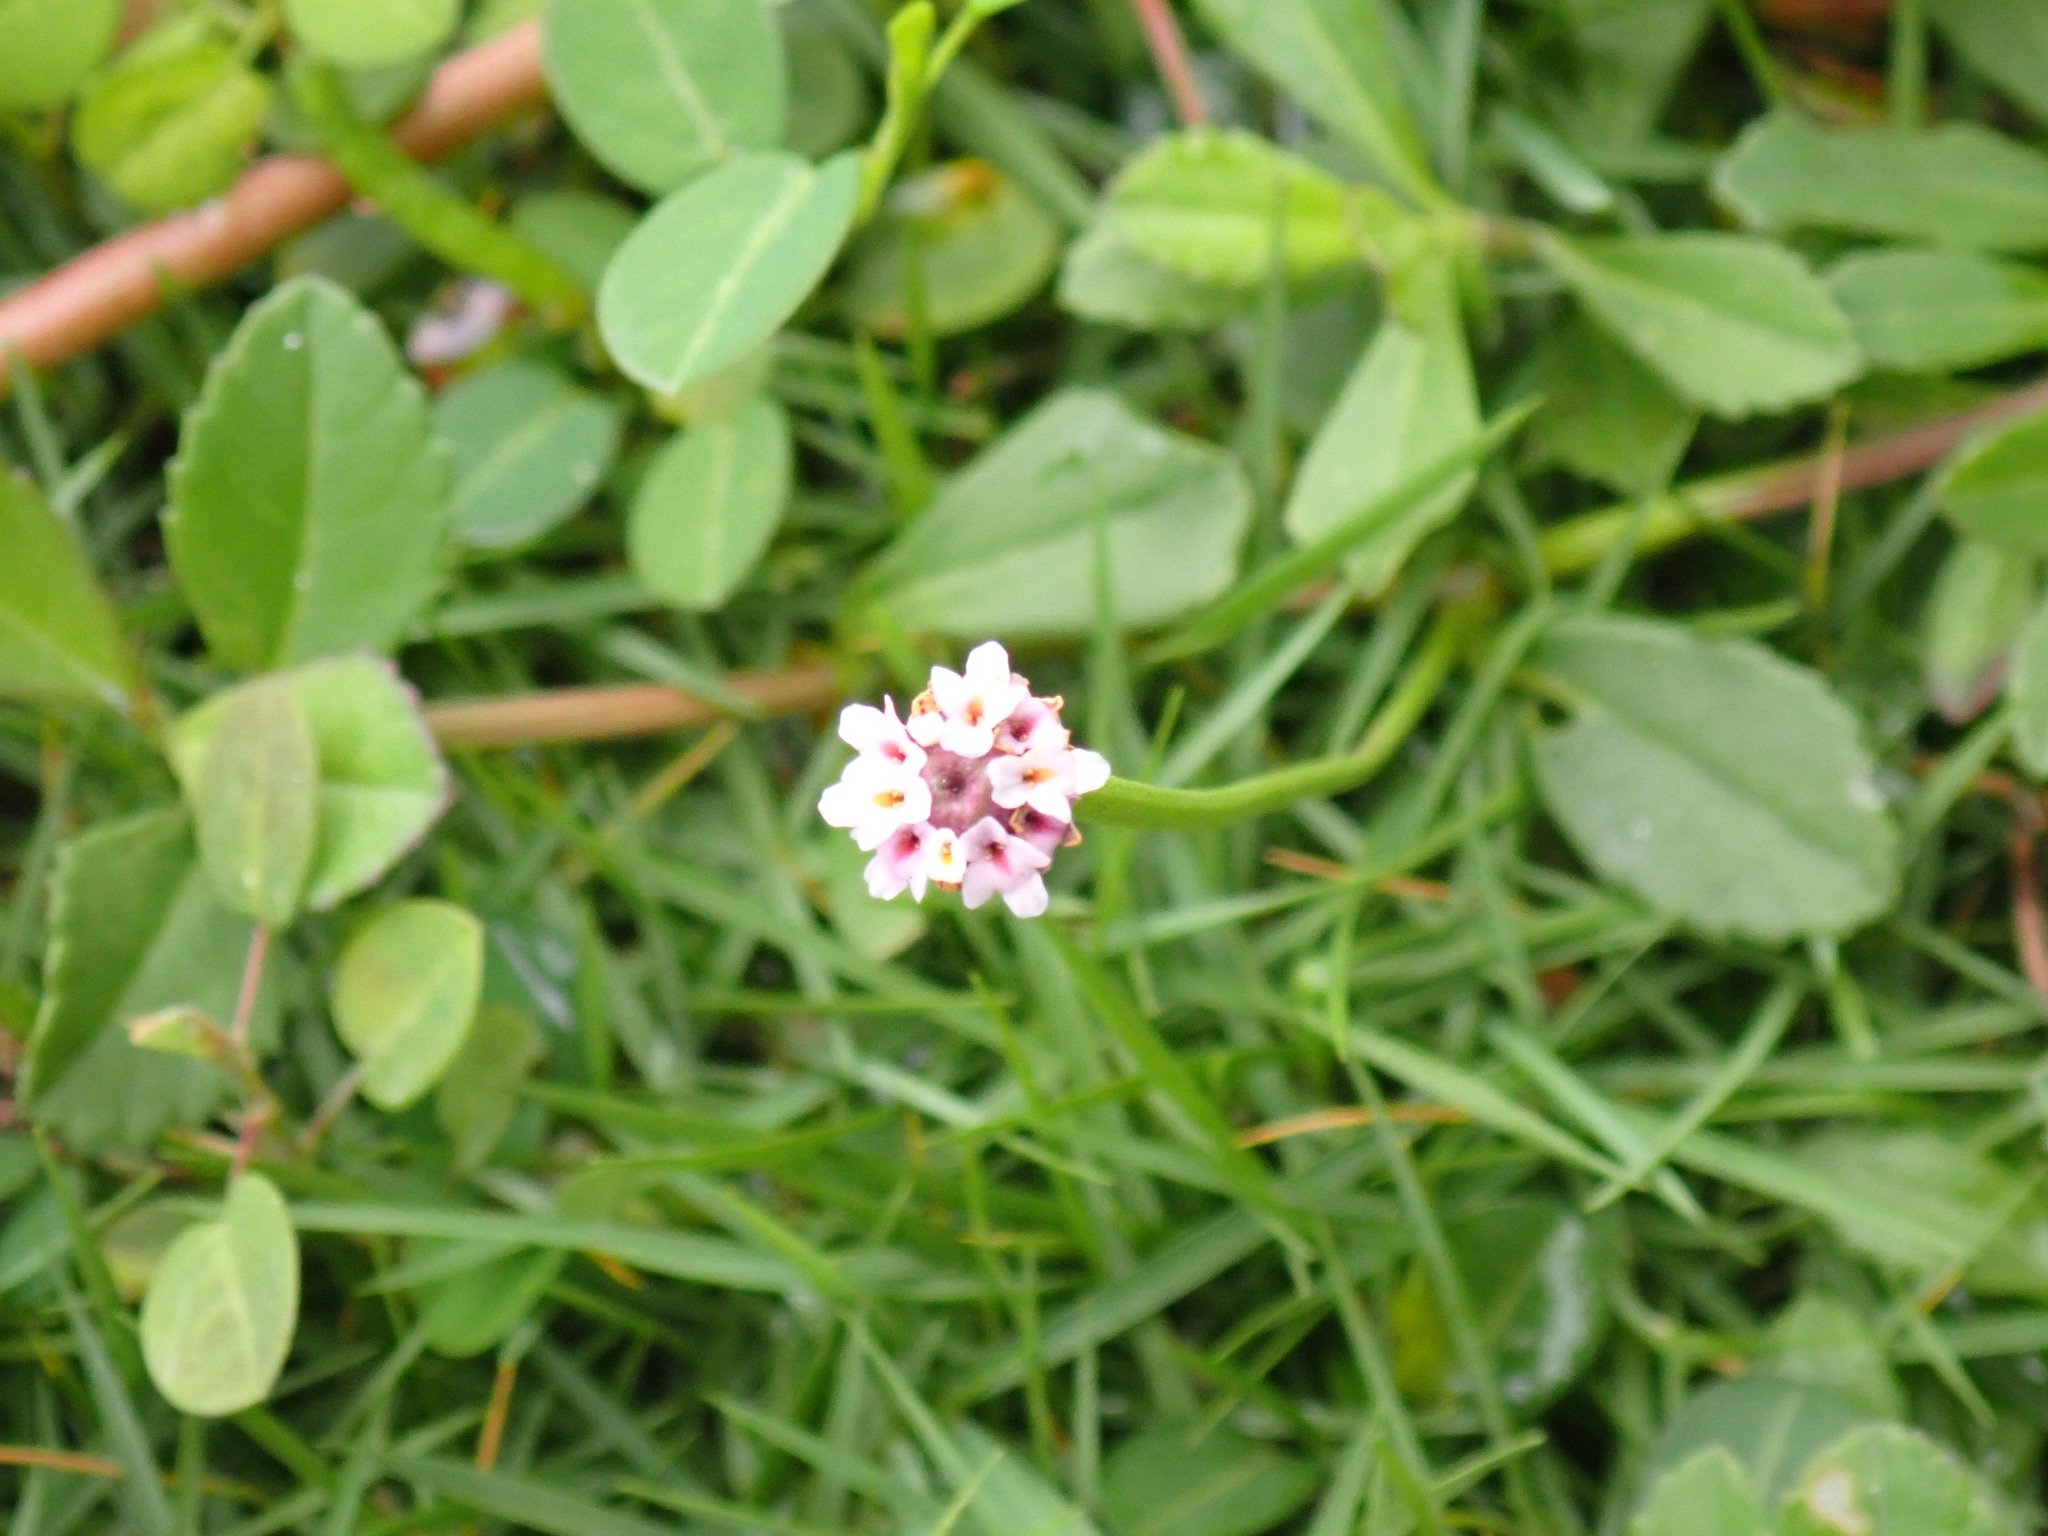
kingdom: Plantae
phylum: Tracheophyta
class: Magnoliopsida
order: Lamiales
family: Verbenaceae
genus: Phyla
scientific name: Phyla nodiflora
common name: Frogfruit
